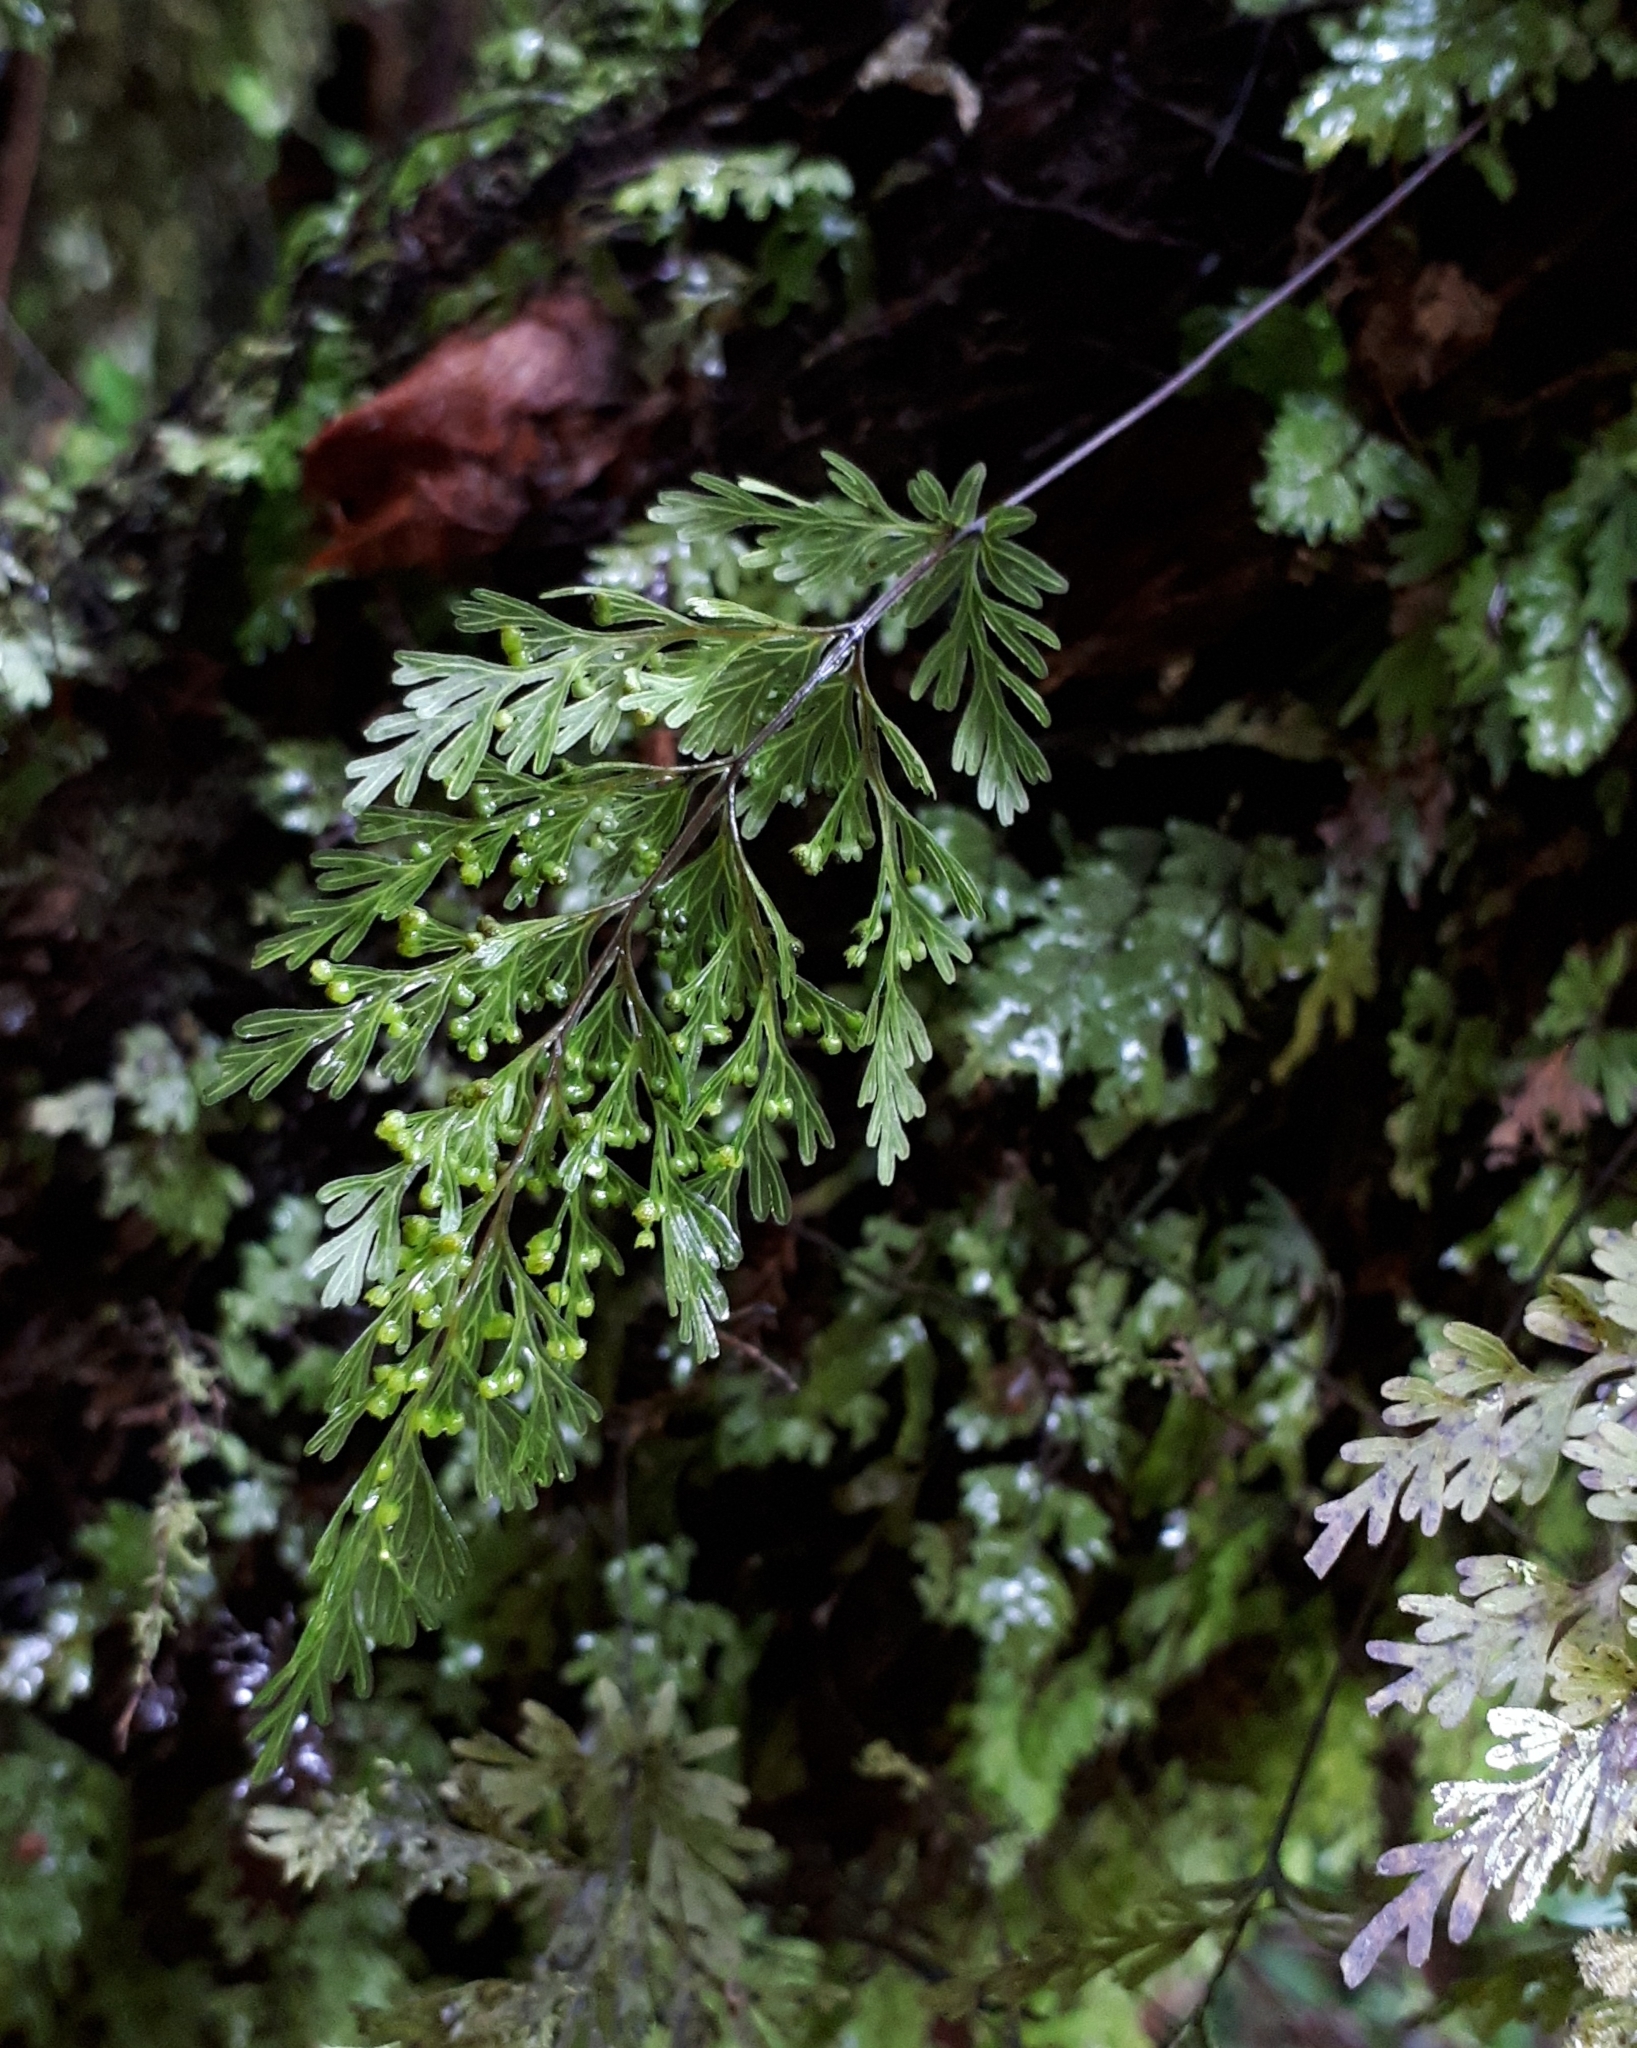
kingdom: Plantae
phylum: Tracheophyta
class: Polypodiopsida
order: Hymenophyllales
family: Hymenophyllaceae
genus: Hymenophyllum
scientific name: Hymenophyllum demissum
